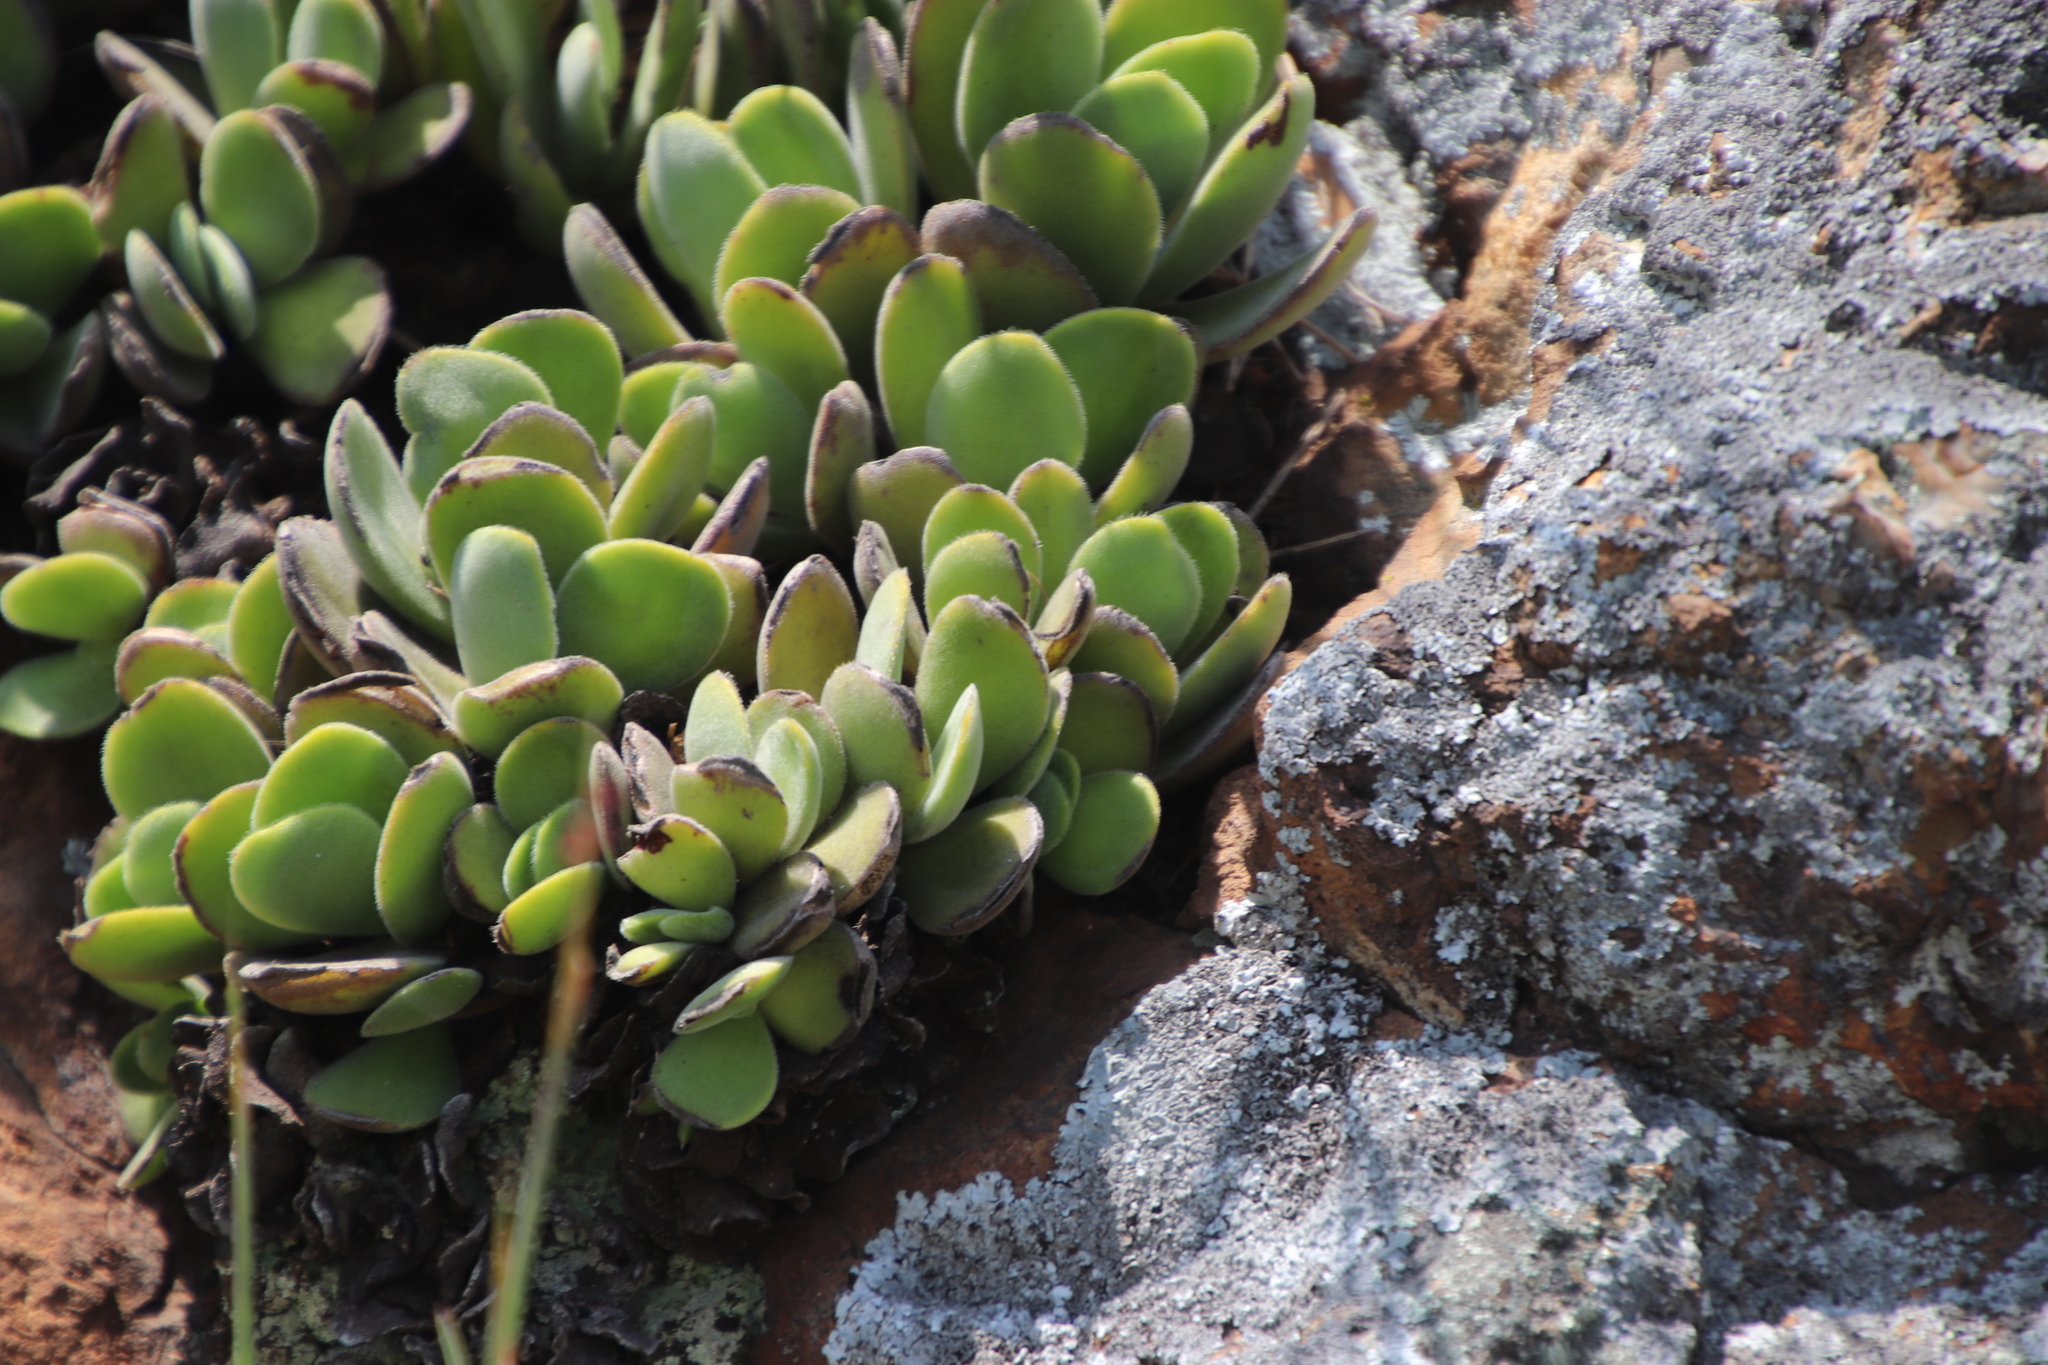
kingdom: Plantae
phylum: Tracheophyta
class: Magnoliopsida
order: Saxifragales
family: Crassulaceae
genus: Crassula
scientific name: Crassula globularioides
